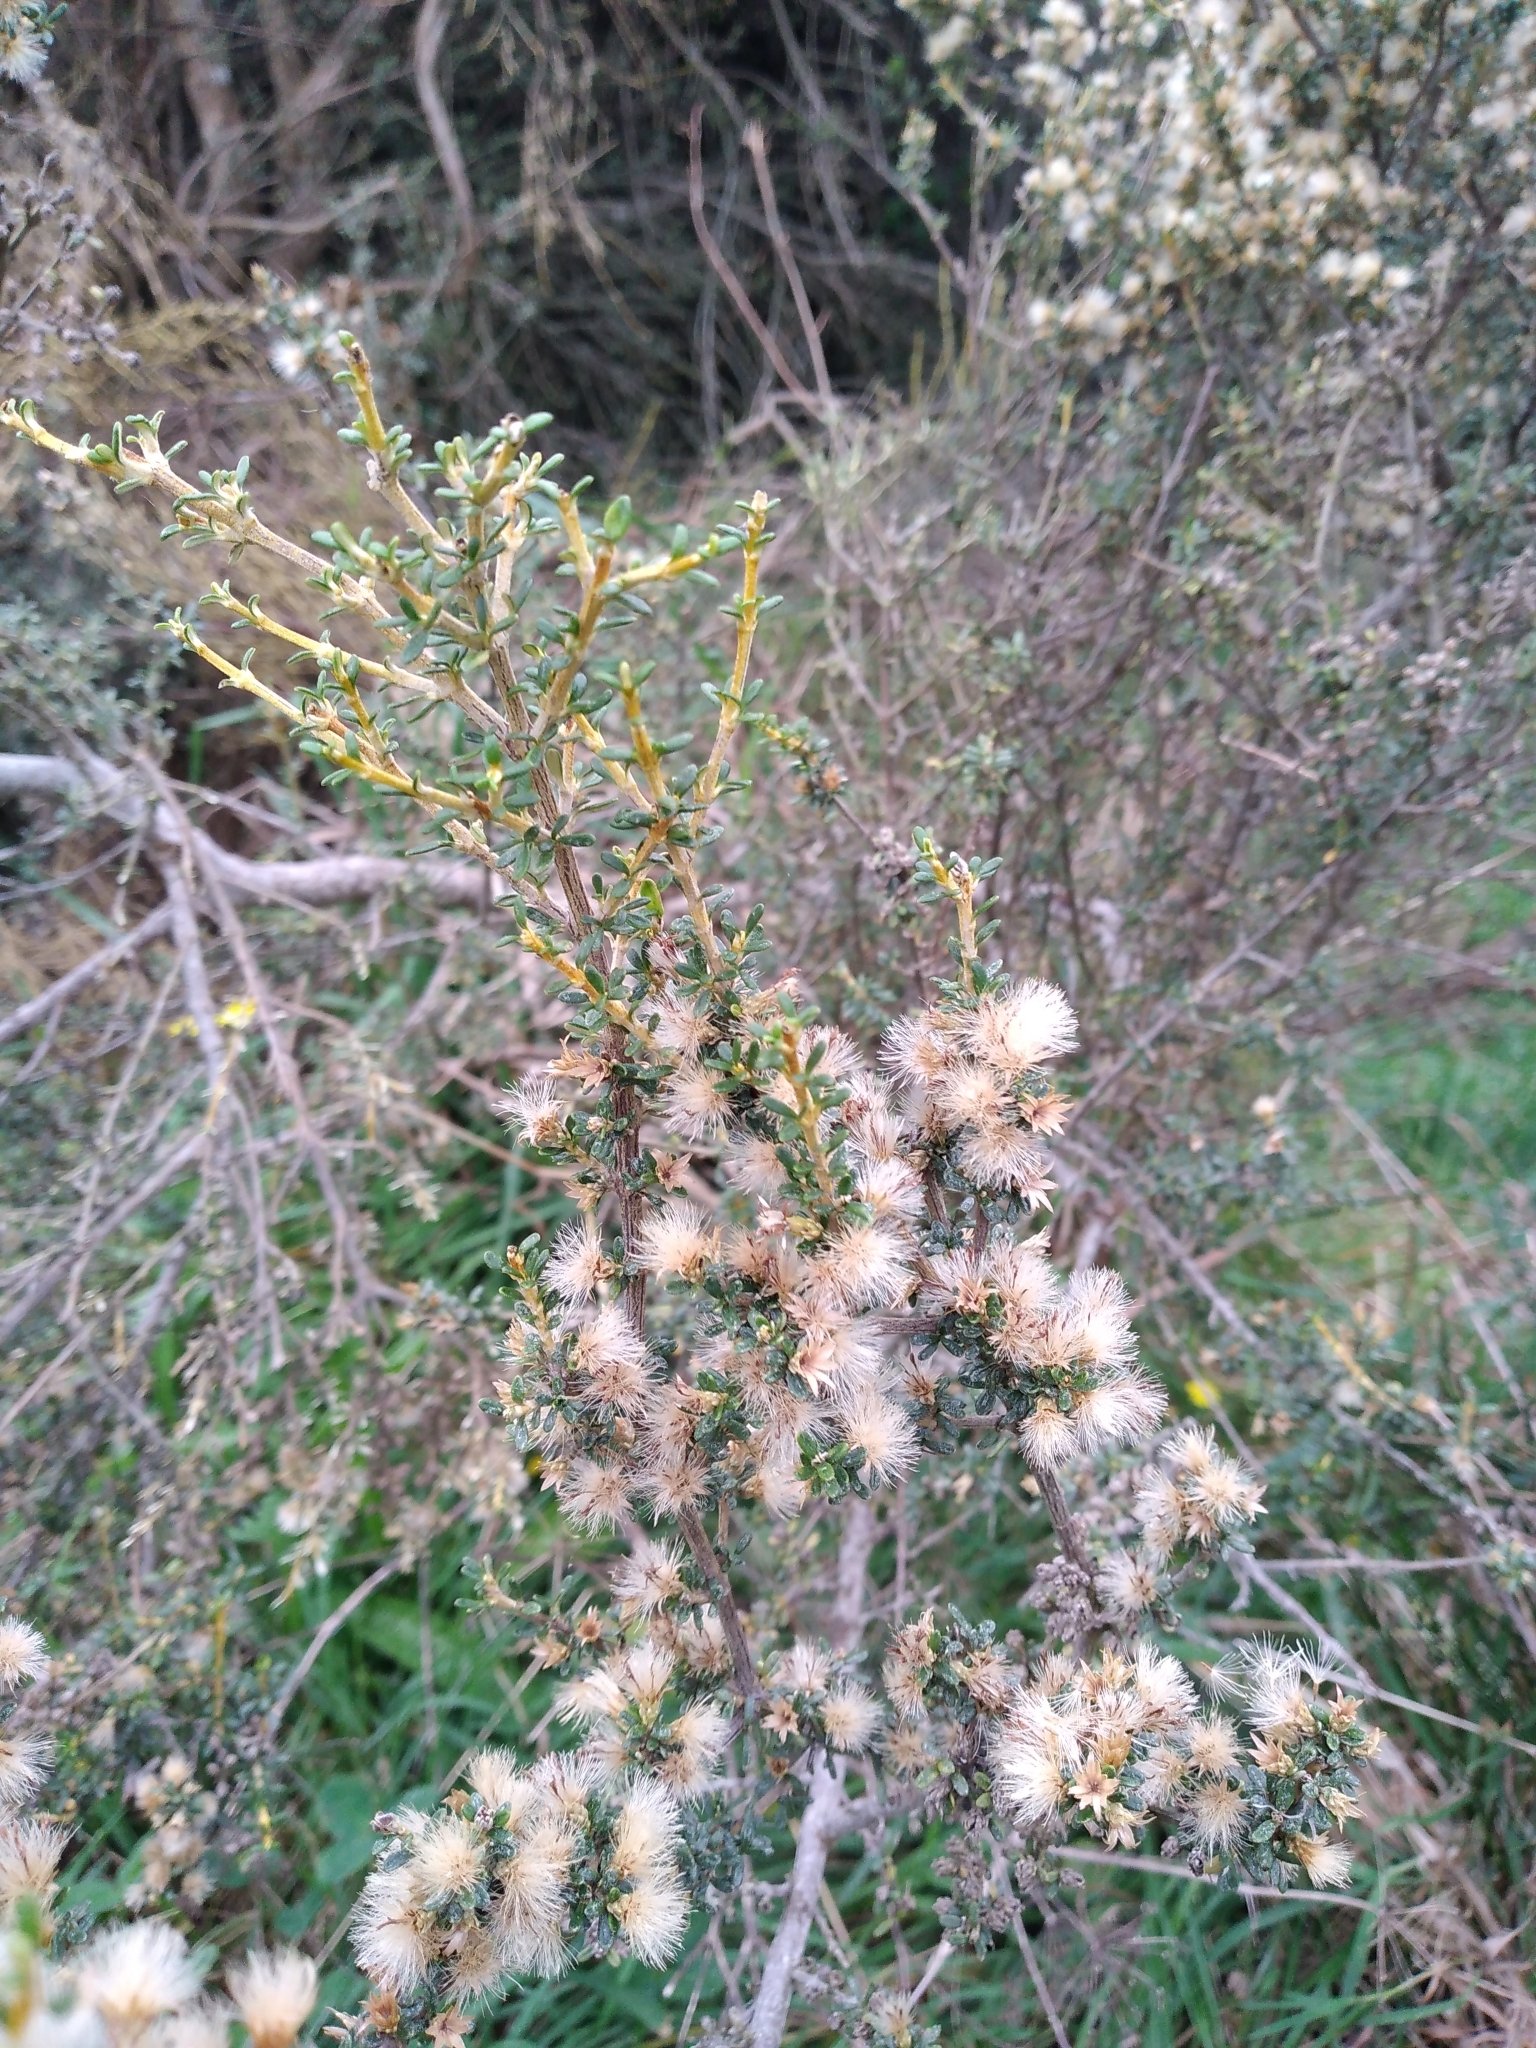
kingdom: Plantae
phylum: Tracheophyta
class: Magnoliopsida
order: Asterales
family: Asteraceae
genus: Olearia
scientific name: Olearia solandri
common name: Coastal daisybush
